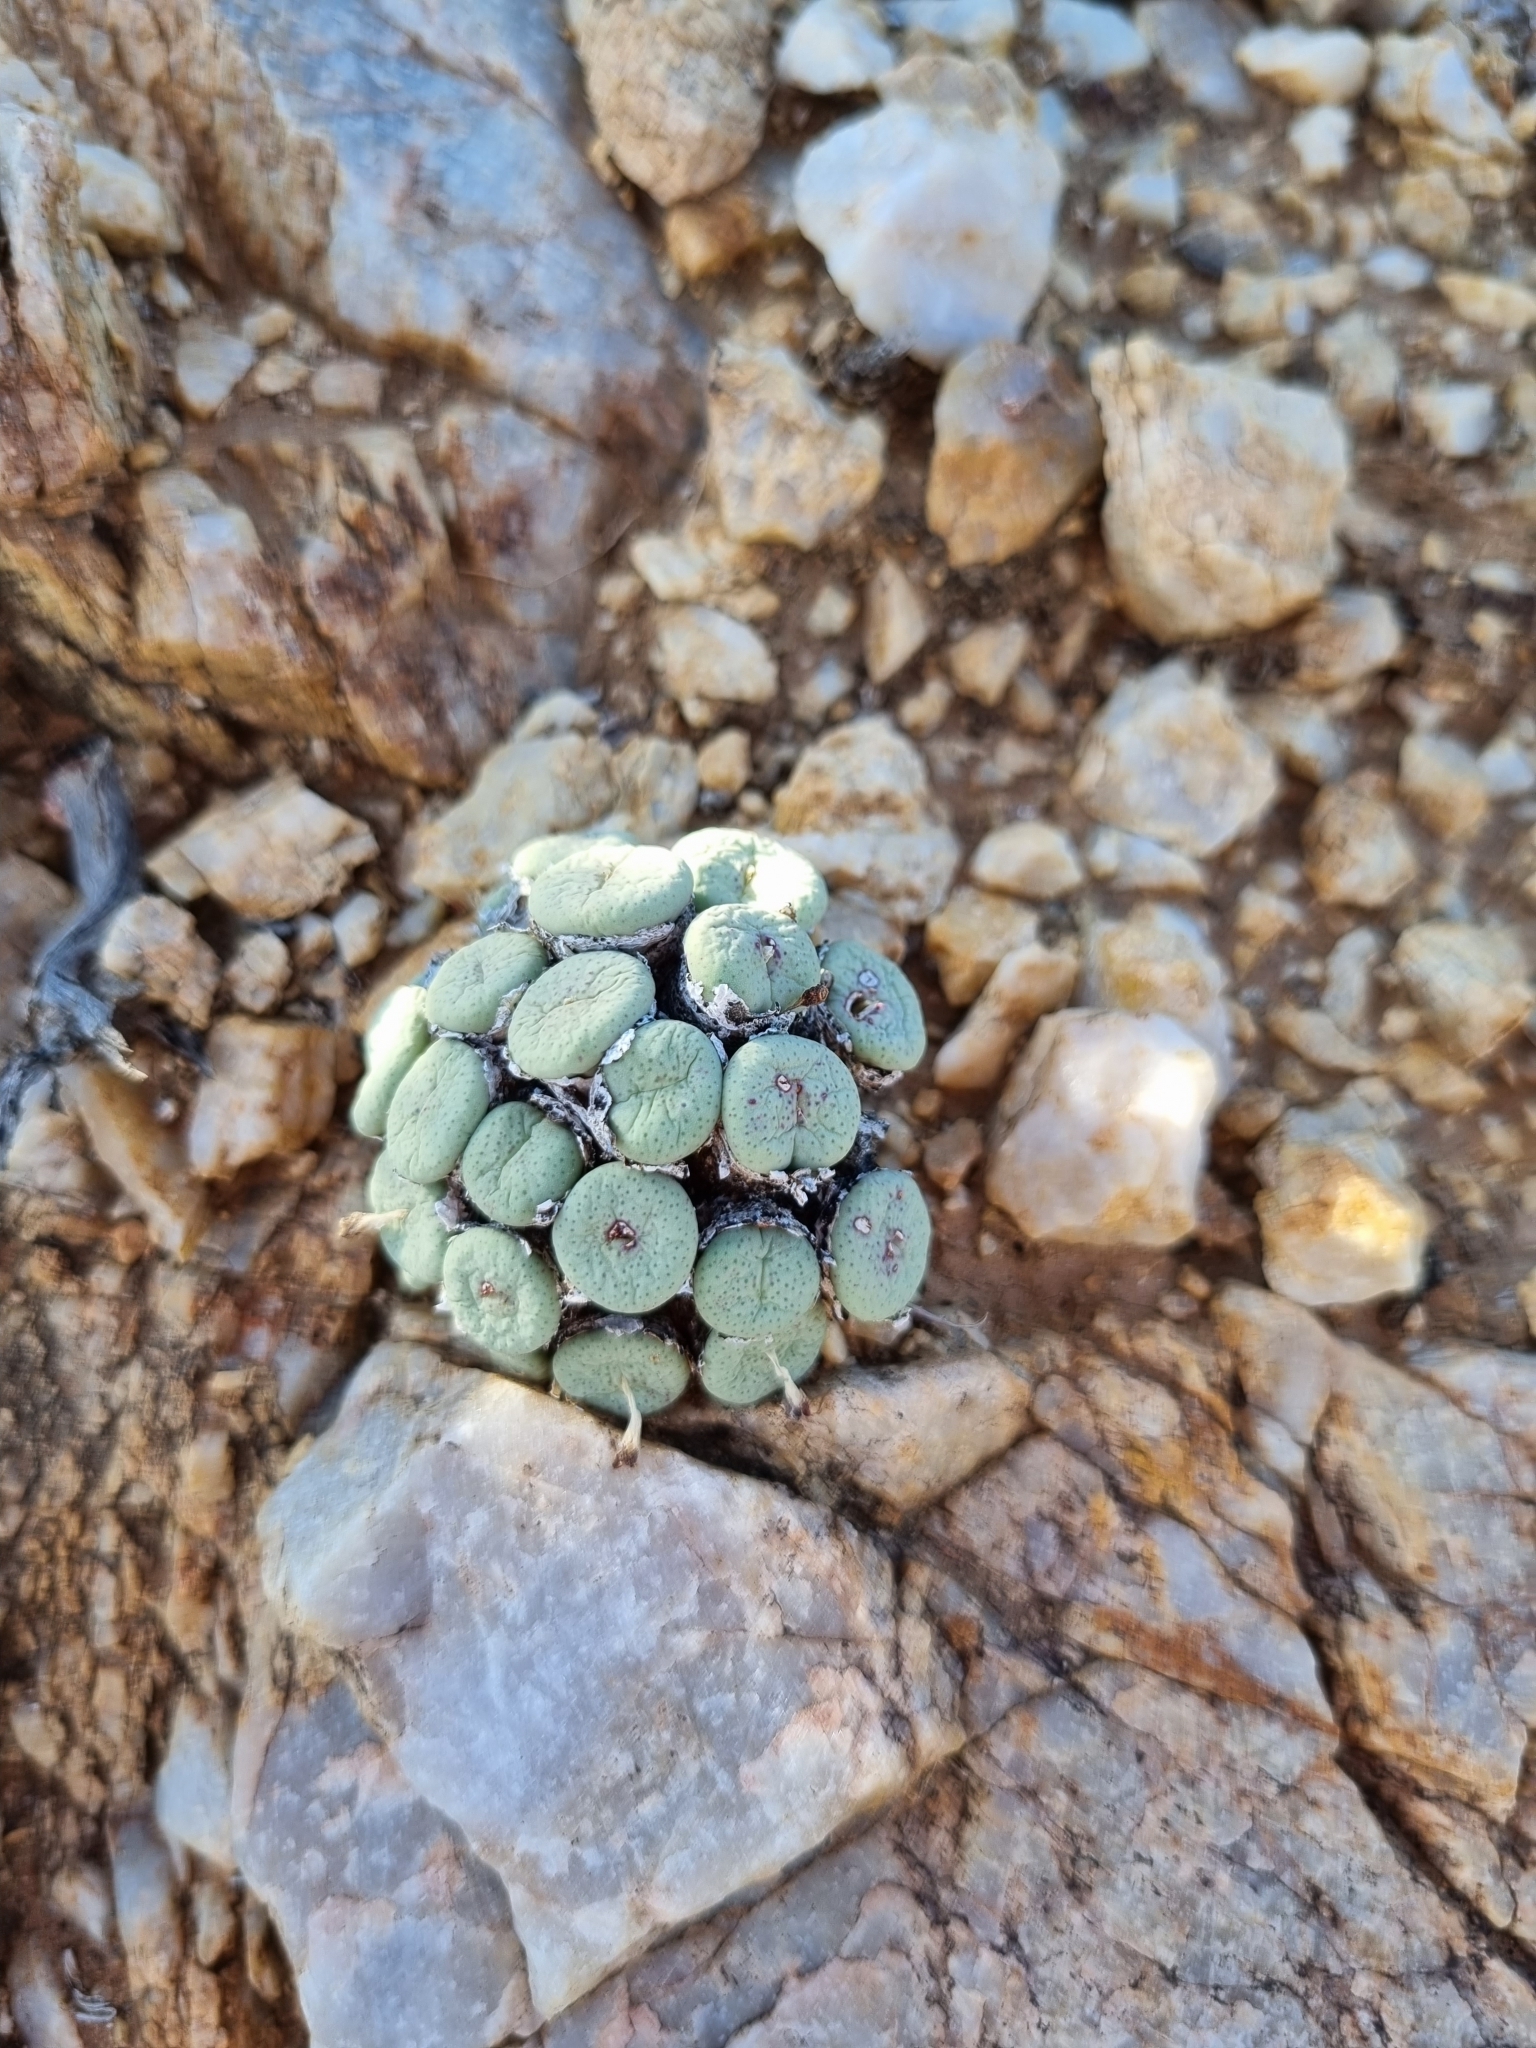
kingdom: Plantae
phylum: Tracheophyta
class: Magnoliopsida
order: Caryophyllales
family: Aizoaceae
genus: Conophytum
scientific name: Conophytum jucundum
